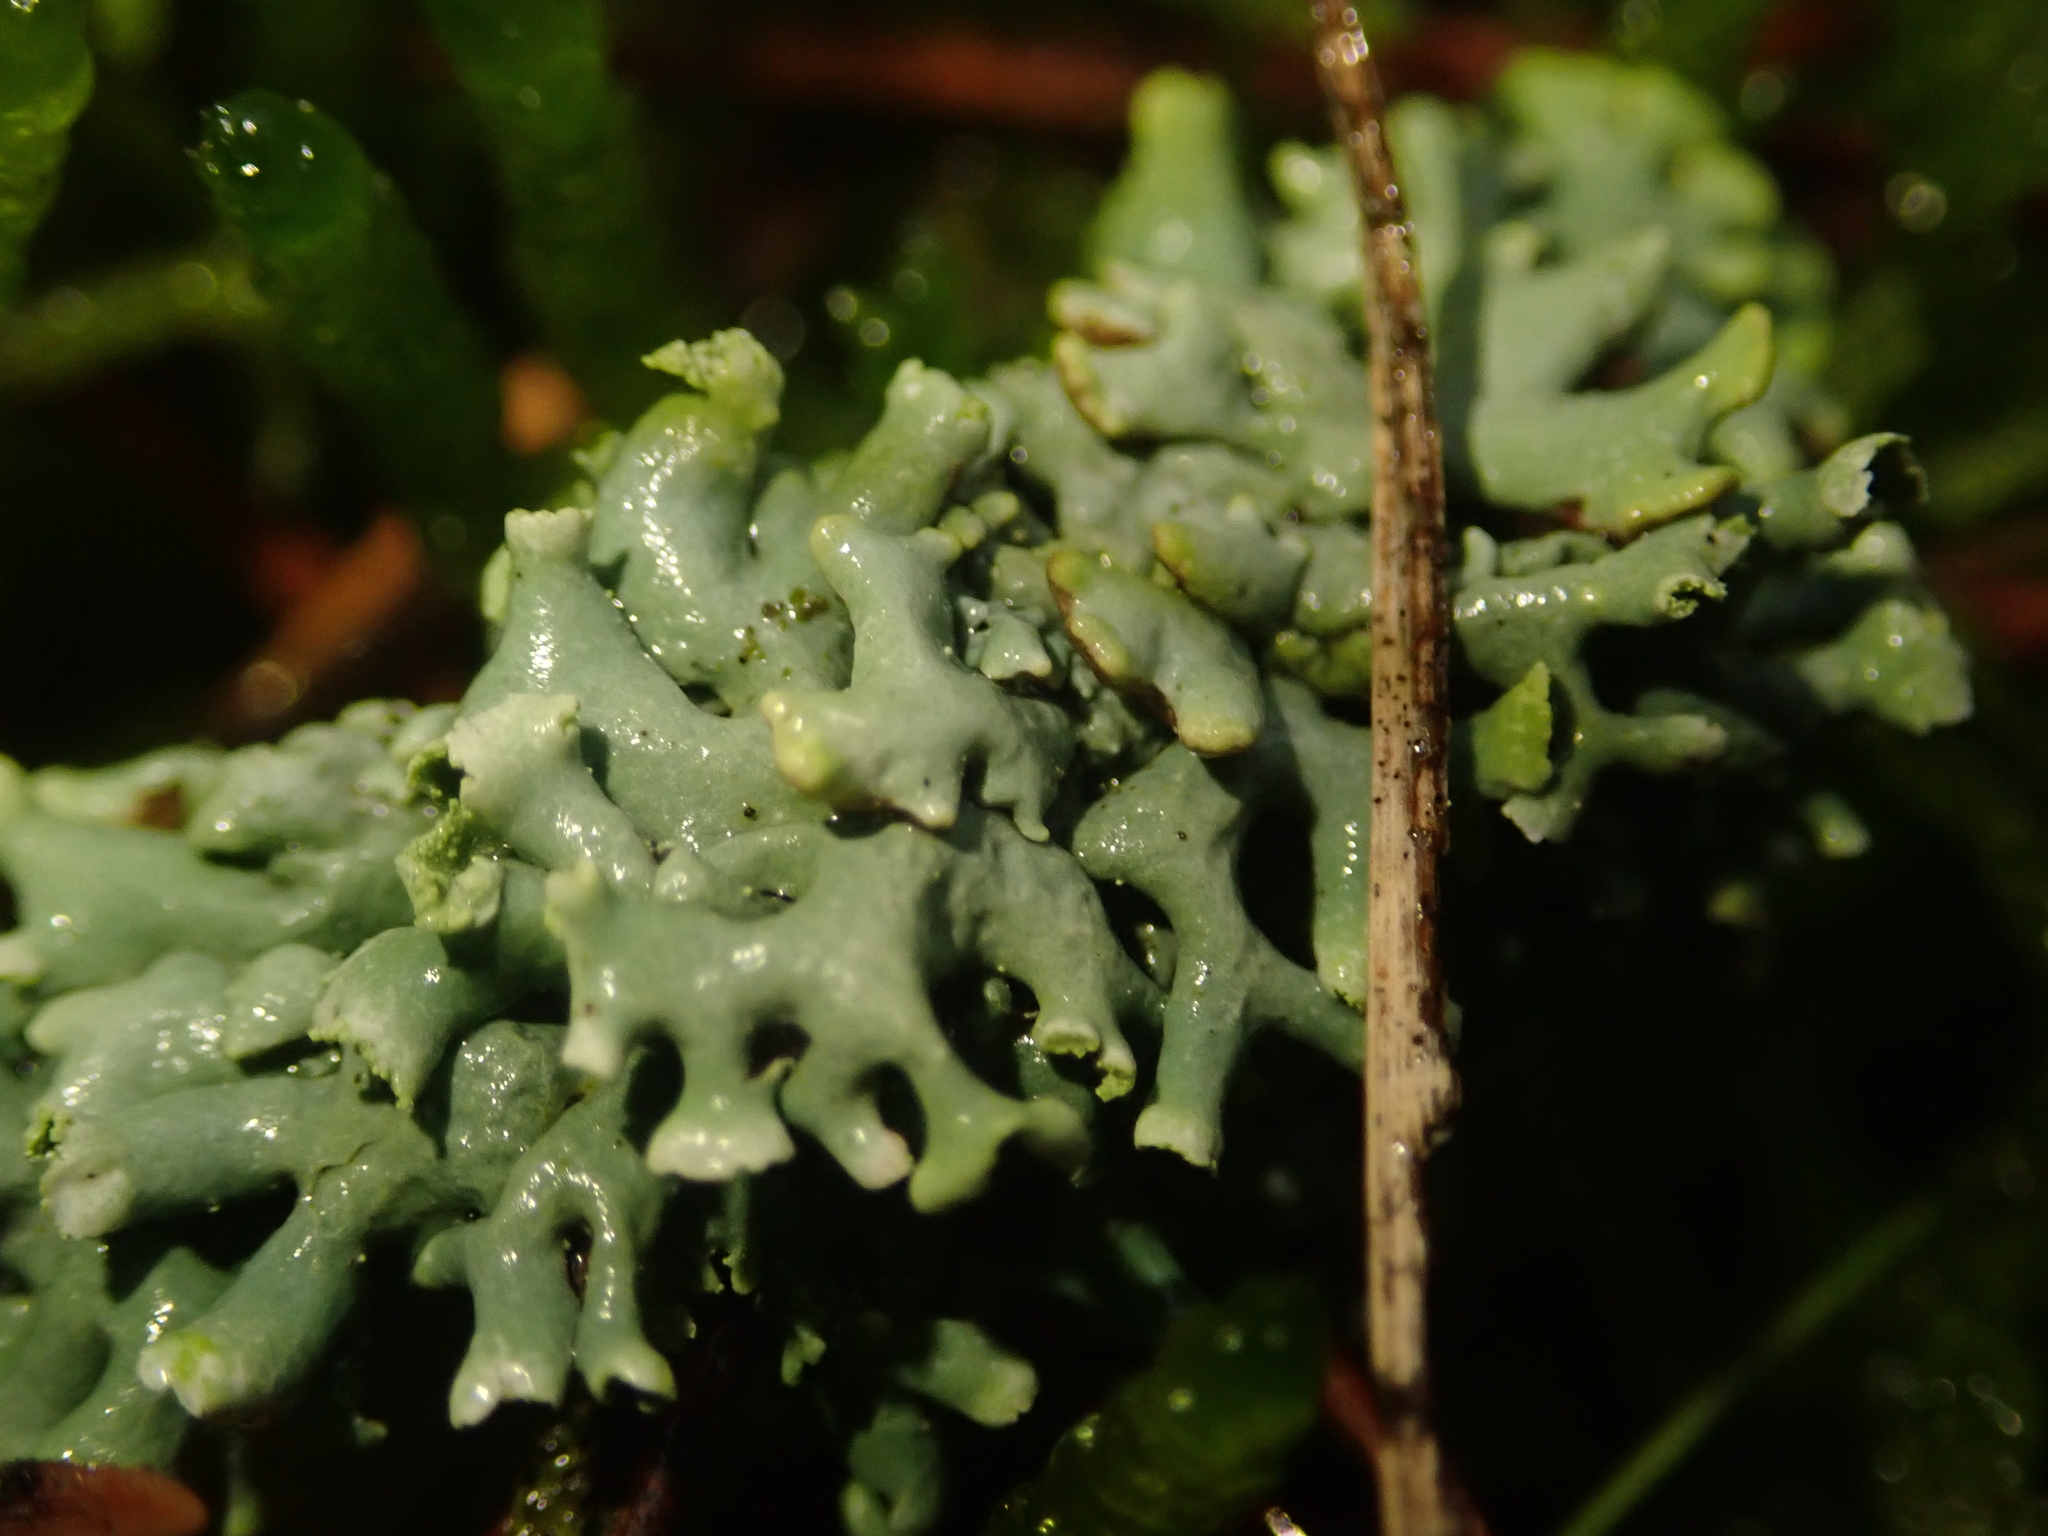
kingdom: Fungi
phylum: Ascomycota
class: Lecanoromycetes
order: Lecanorales
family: Parmeliaceae
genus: Hypogymnia
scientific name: Hypogymnia physodes
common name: Dark crottle
